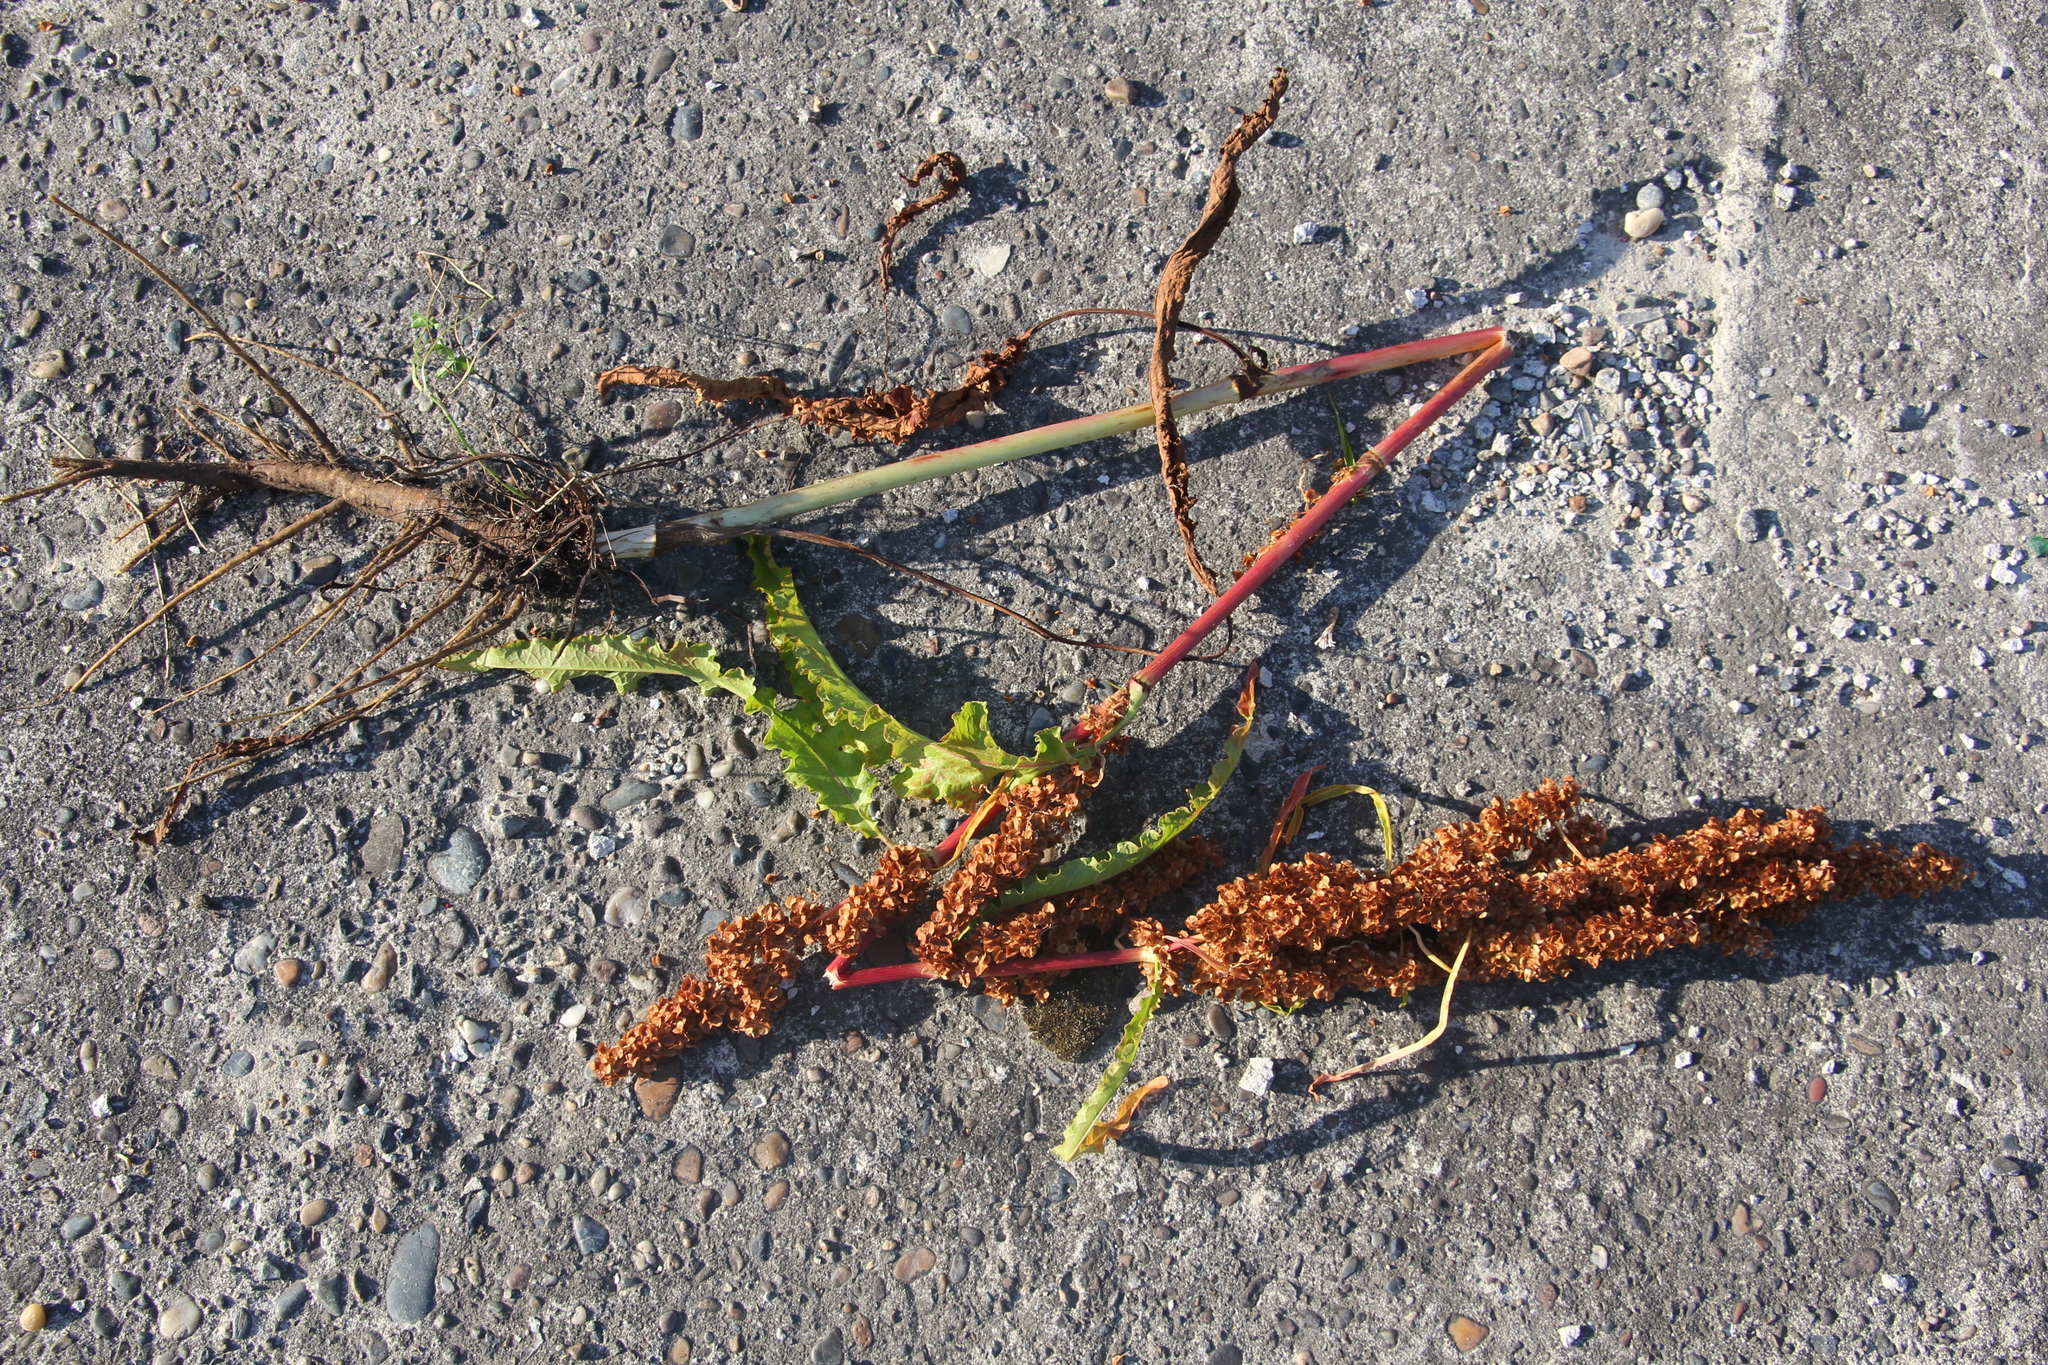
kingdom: Plantae
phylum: Tracheophyta
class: Magnoliopsida
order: Caryophyllales
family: Polygonaceae
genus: Rumex
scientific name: Rumex pseudonatronatus
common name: Field dock
